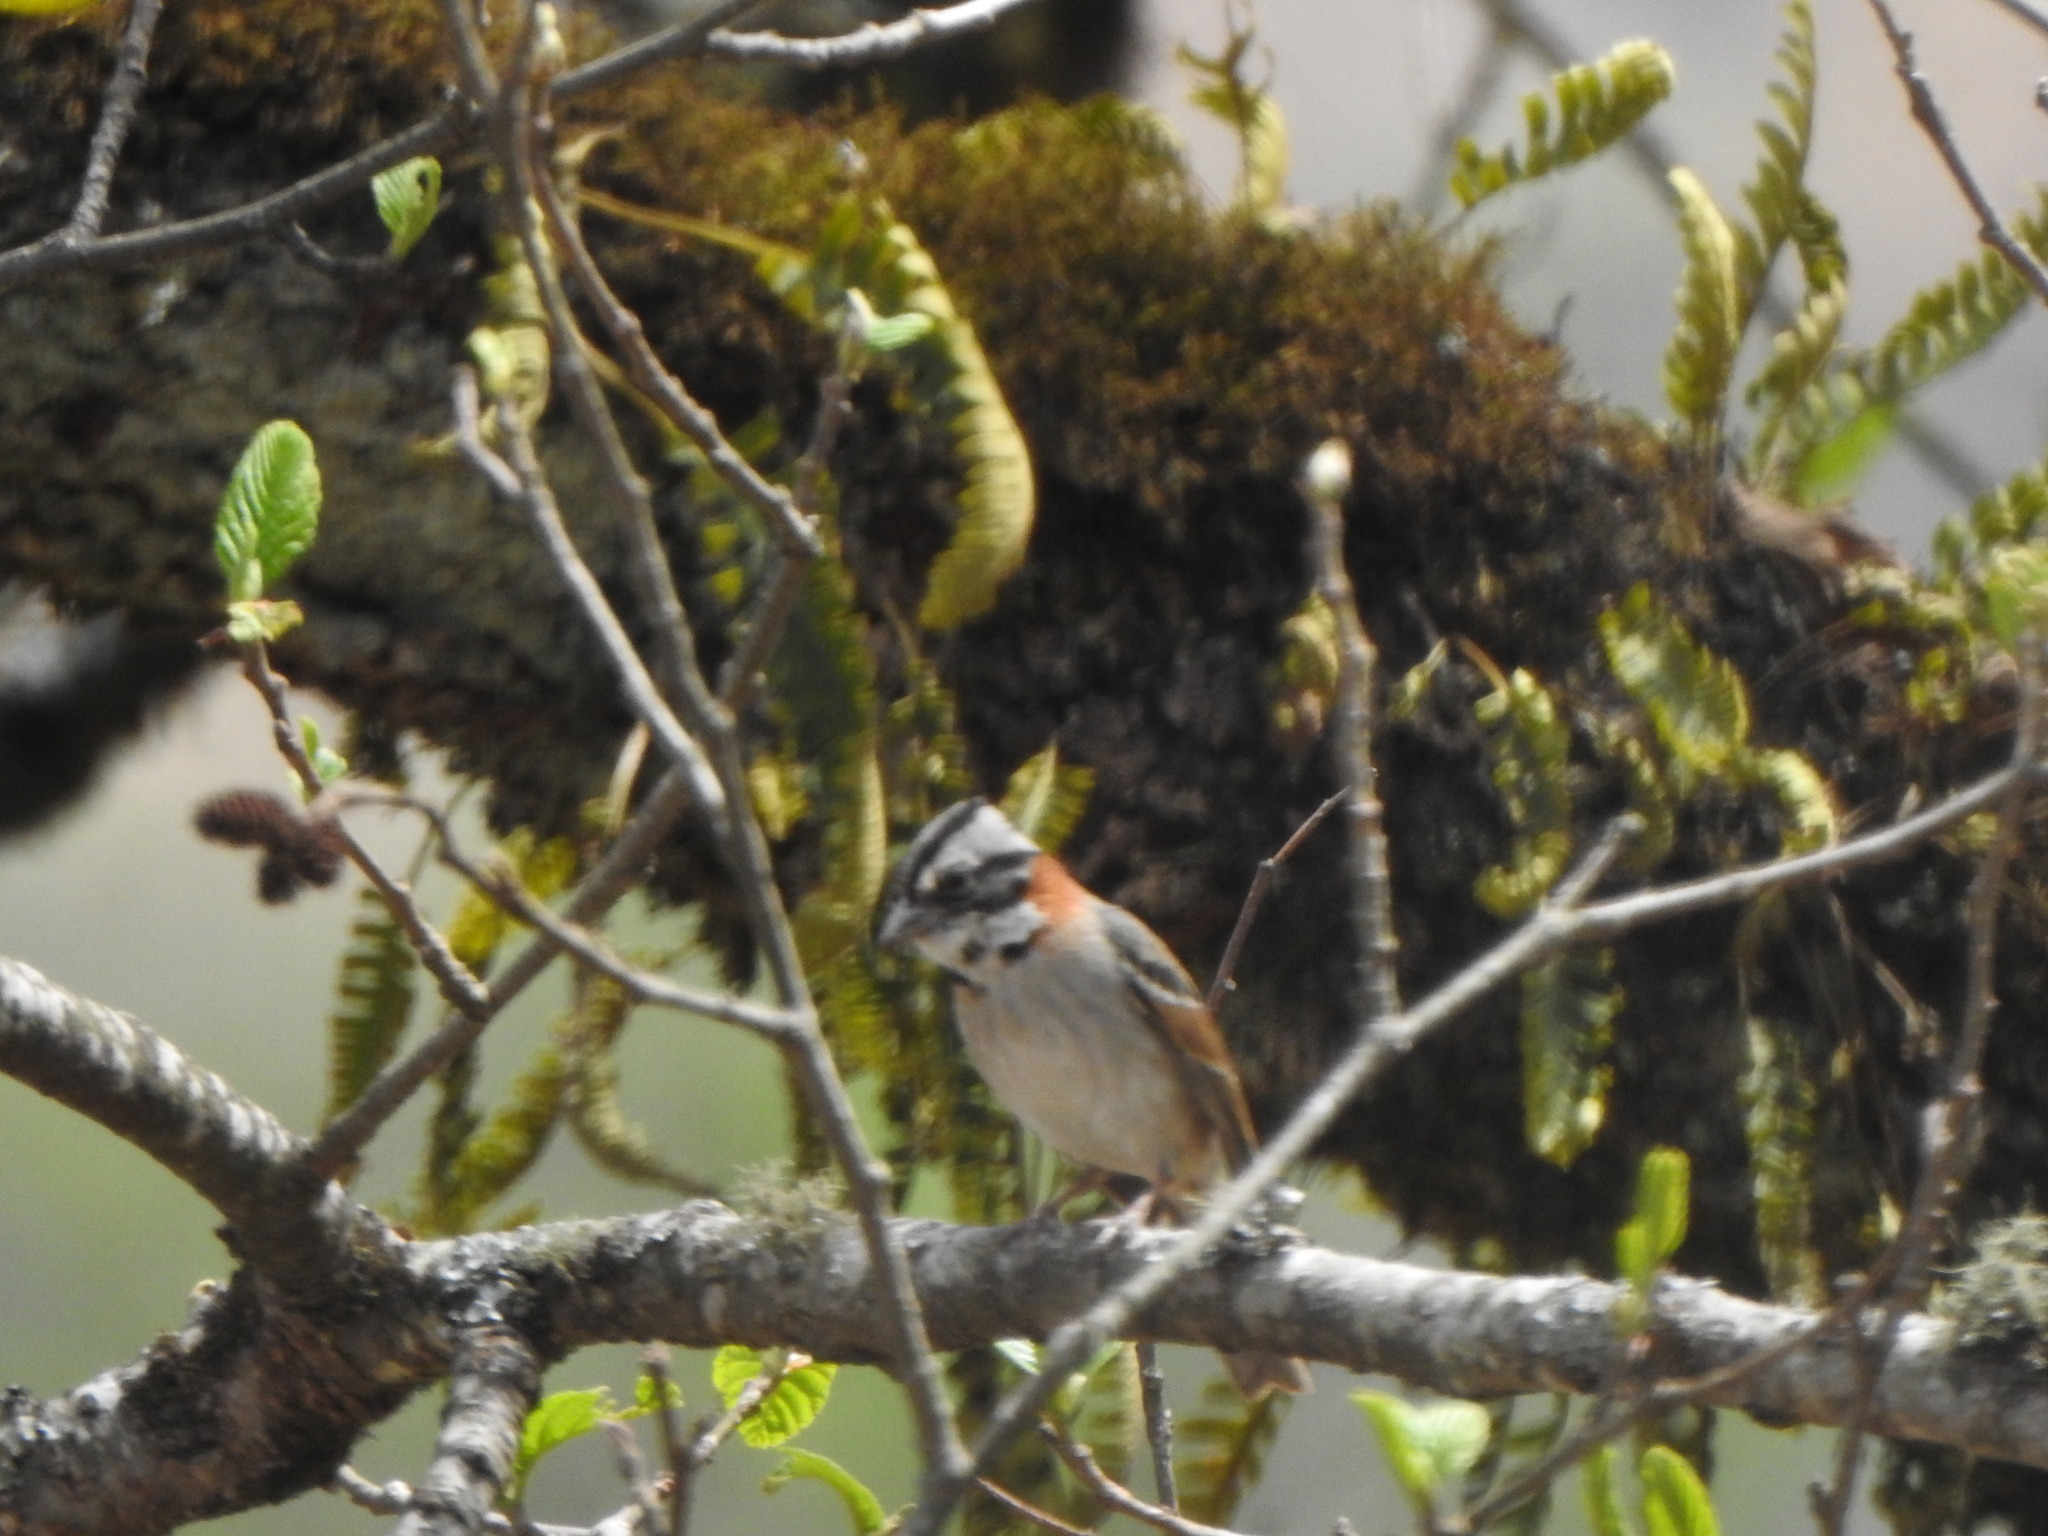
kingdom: Animalia
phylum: Chordata
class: Aves
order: Passeriformes
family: Passerellidae
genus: Zonotrichia
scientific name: Zonotrichia capensis
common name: Rufous-collared sparrow
